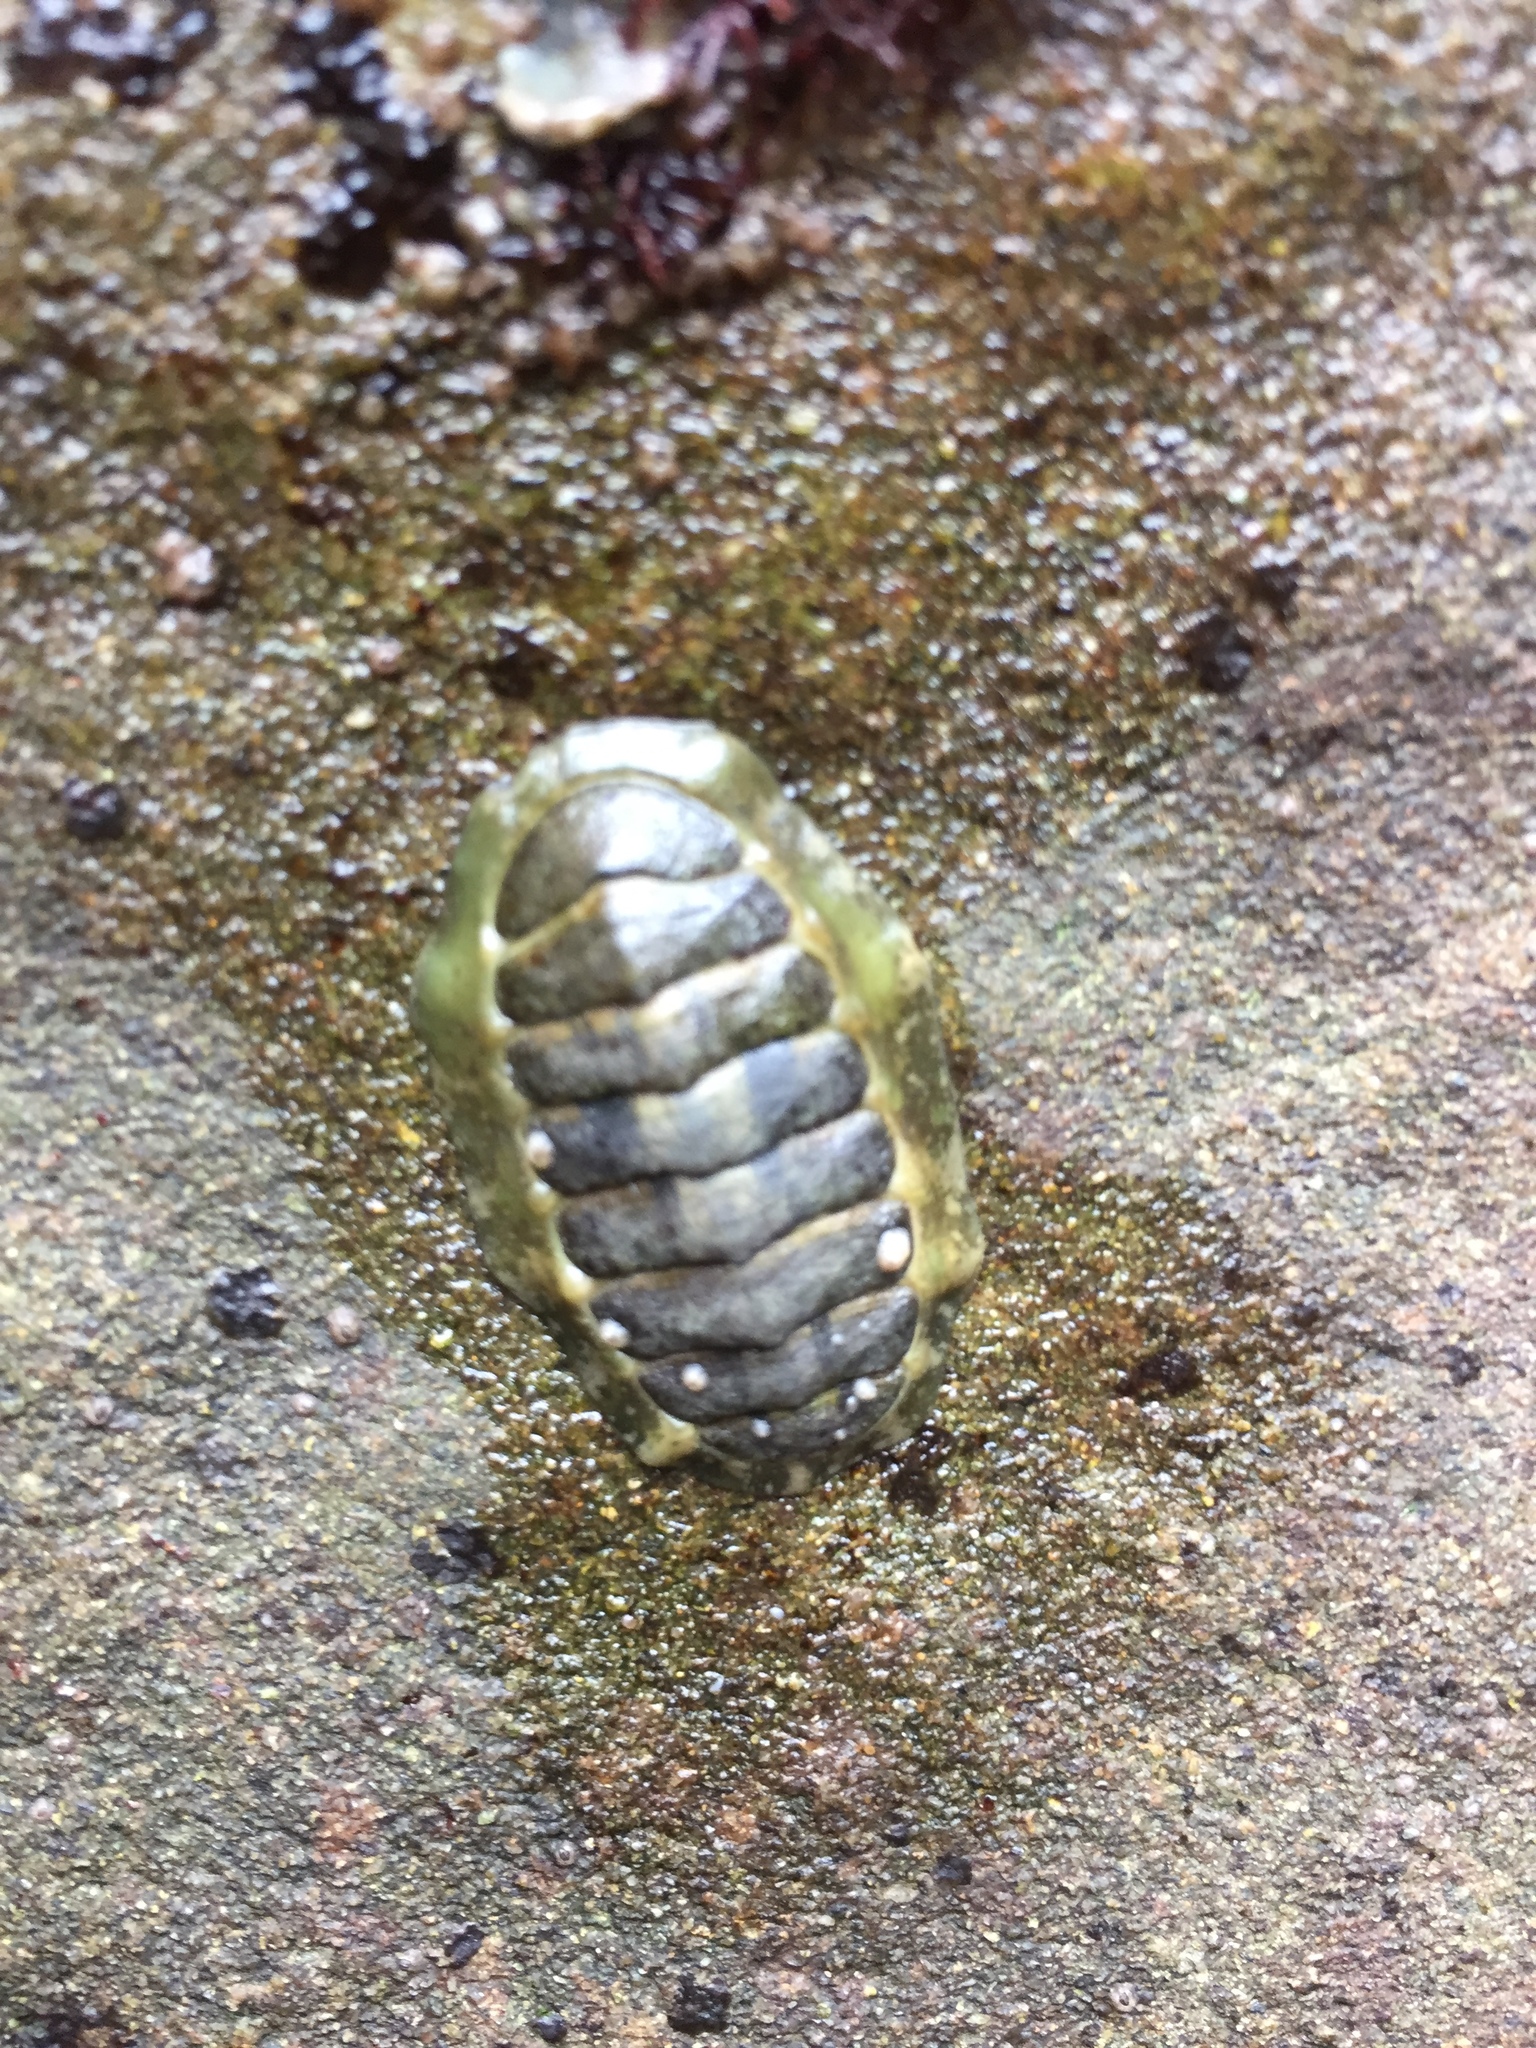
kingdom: Animalia
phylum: Mollusca
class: Polyplacophora
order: Chitonida
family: Tonicellidae
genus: Cyanoplax
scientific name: Cyanoplax hartwegii
